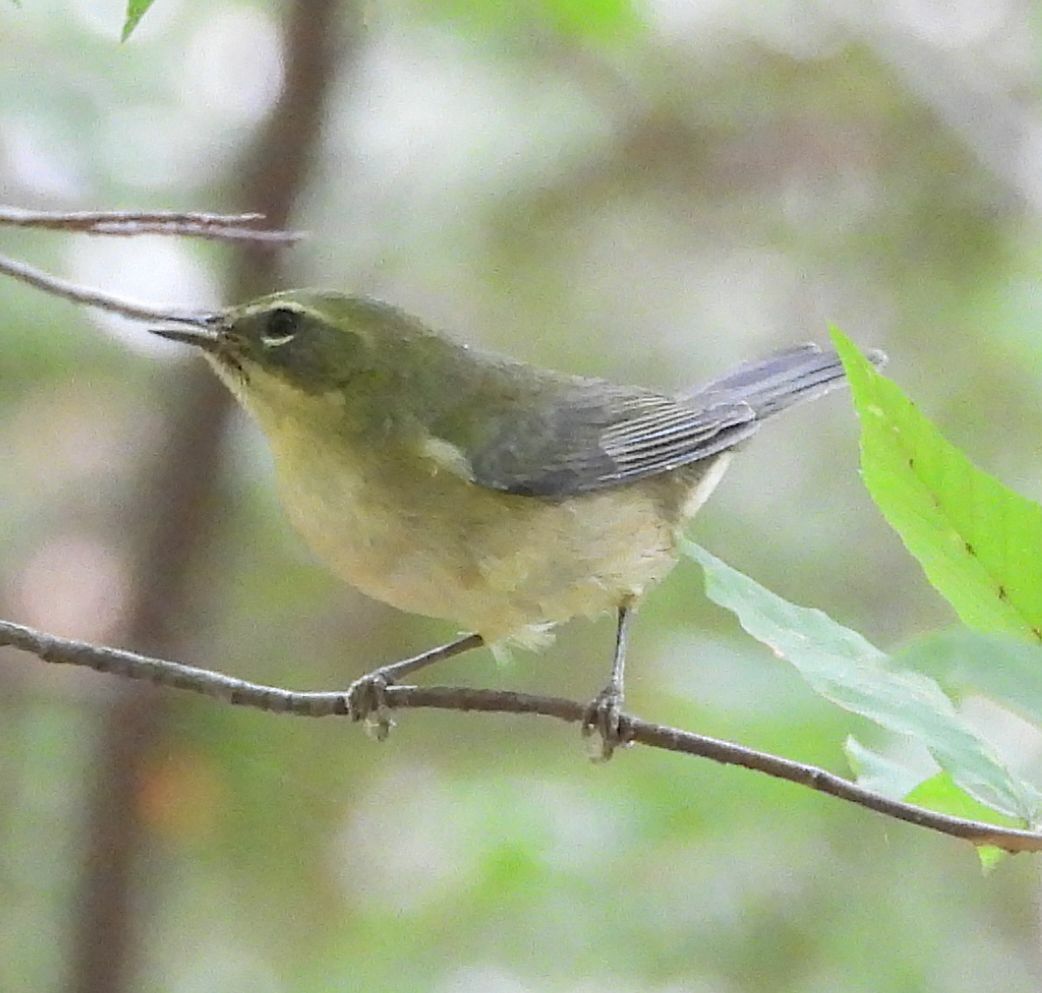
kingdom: Animalia
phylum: Chordata
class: Aves
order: Passeriformes
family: Parulidae
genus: Setophaga
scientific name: Setophaga caerulescens
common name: Black-throated blue warbler
